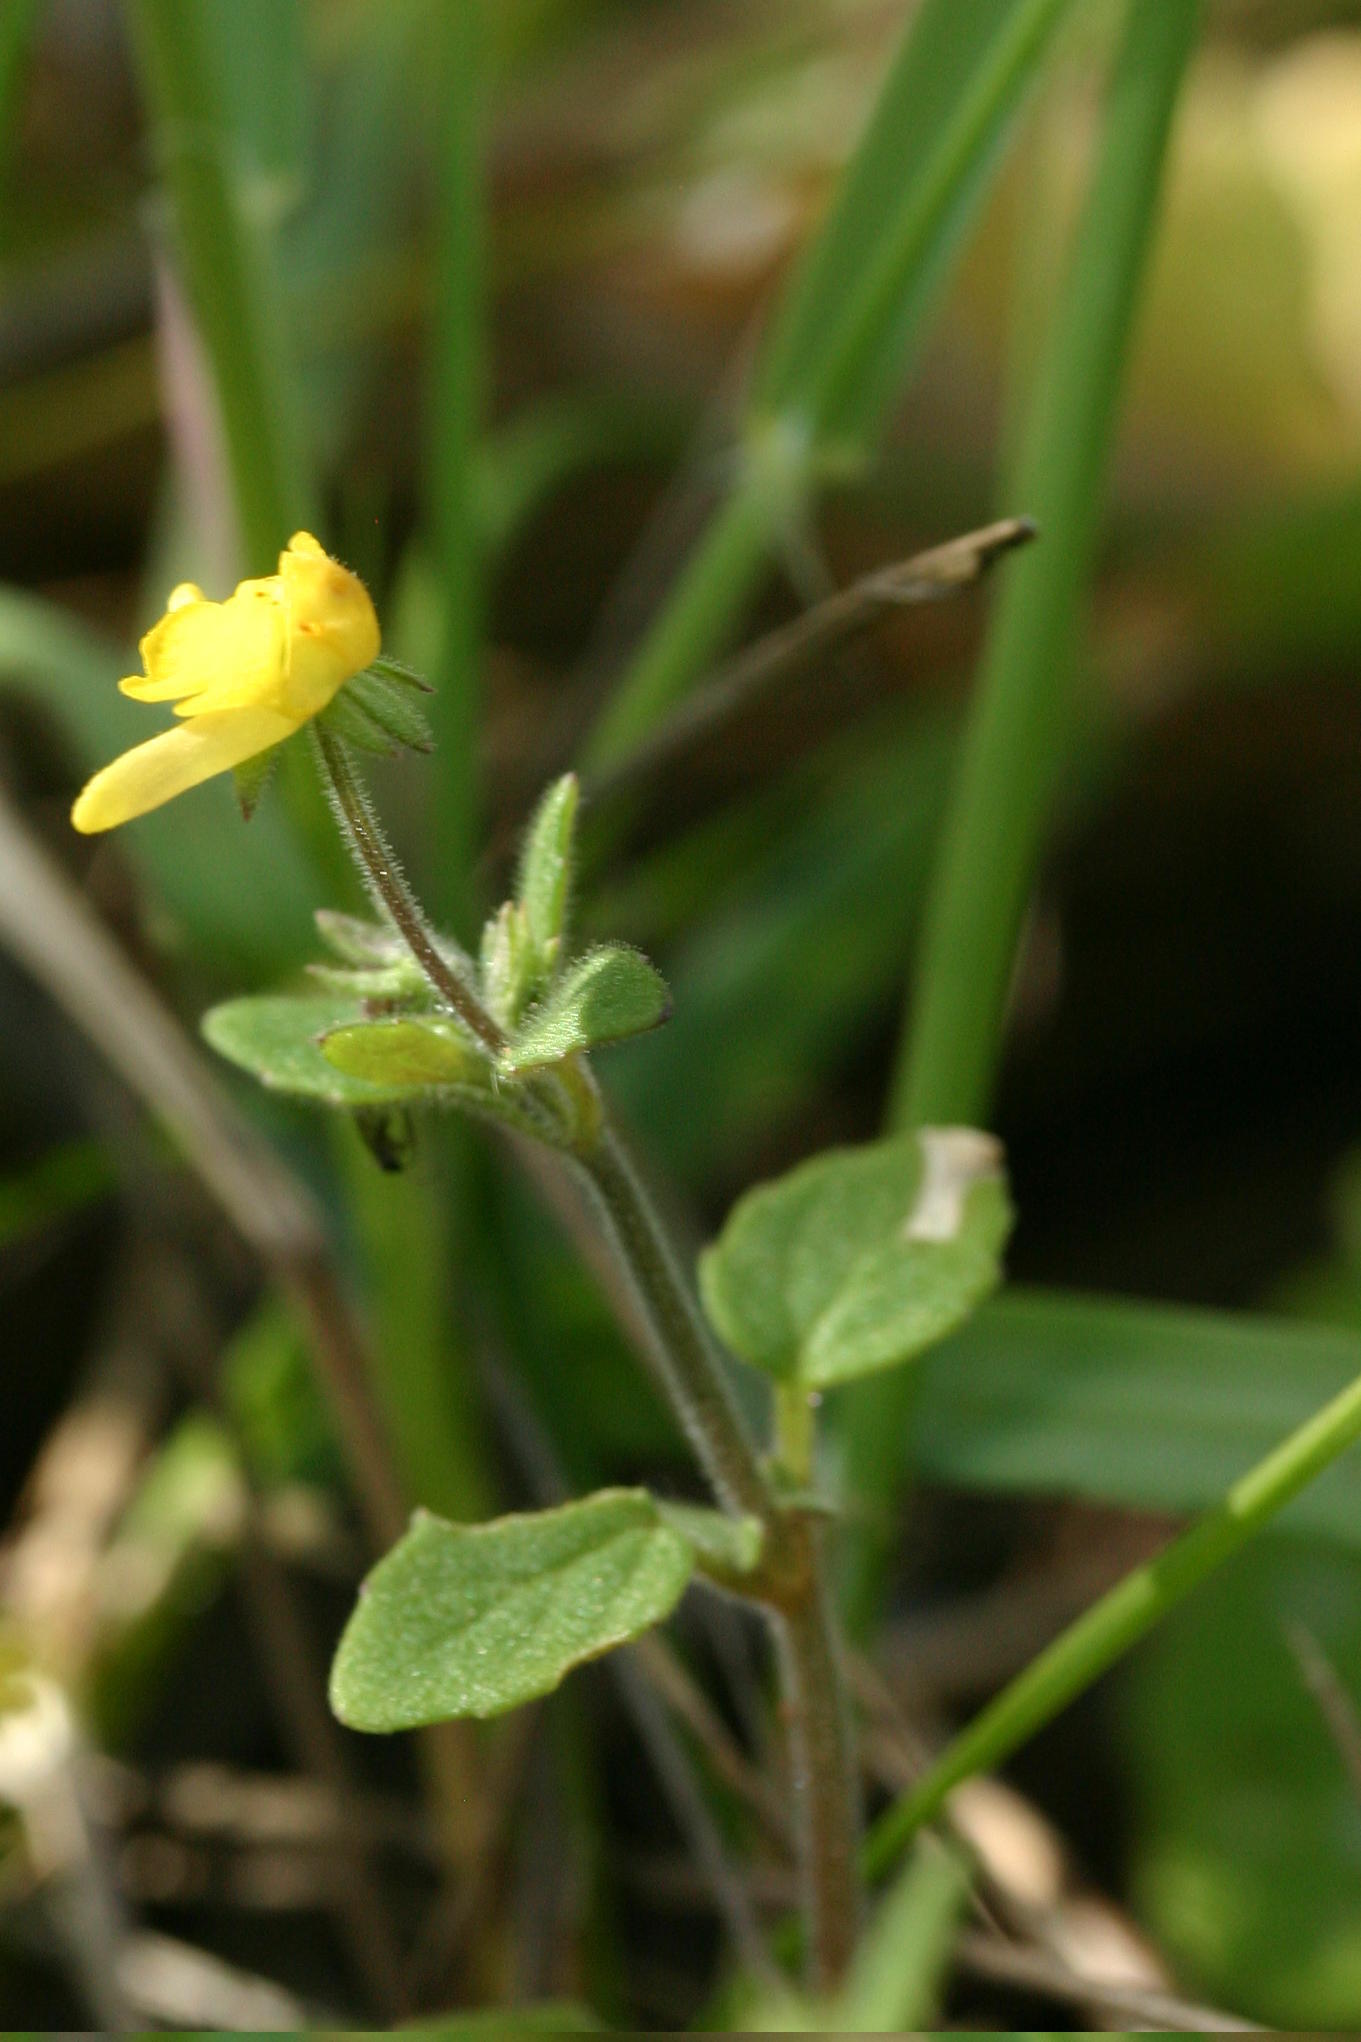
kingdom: Plantae
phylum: Tracheophyta
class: Magnoliopsida
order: Lamiales
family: Scrophulariaceae
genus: Hemimeris
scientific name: Hemimeris gracilis
